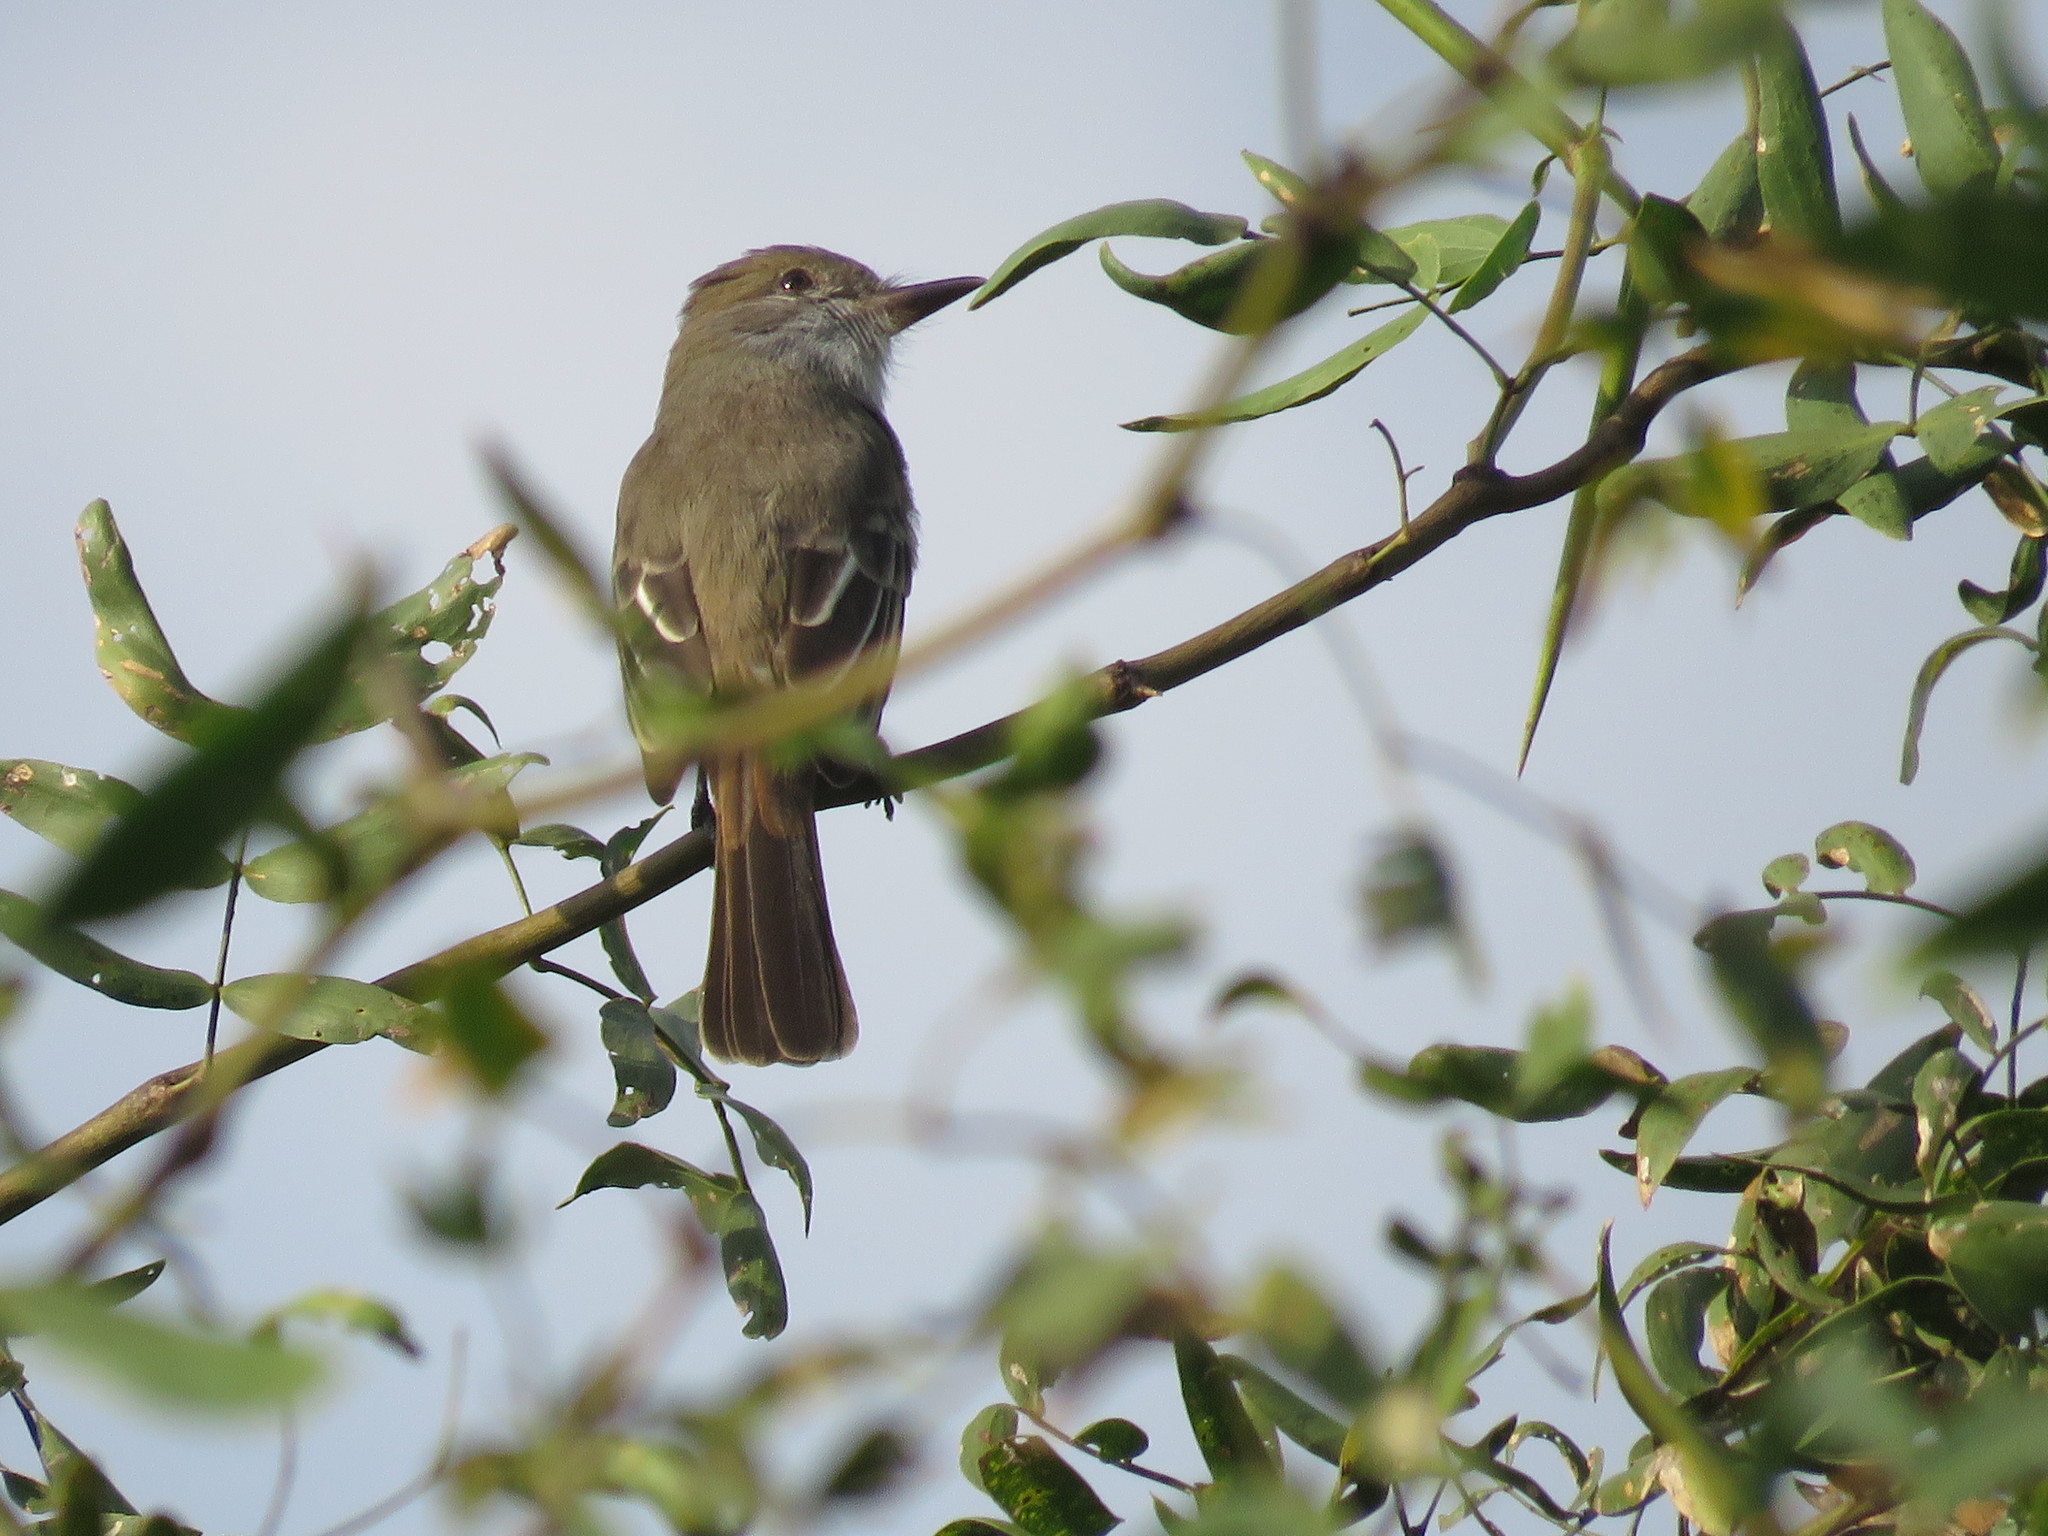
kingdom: Animalia
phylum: Chordata
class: Aves
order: Passeriformes
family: Tyrannidae
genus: Myiarchus
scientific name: Myiarchus swainsoni
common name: Swainson's flycatcher
